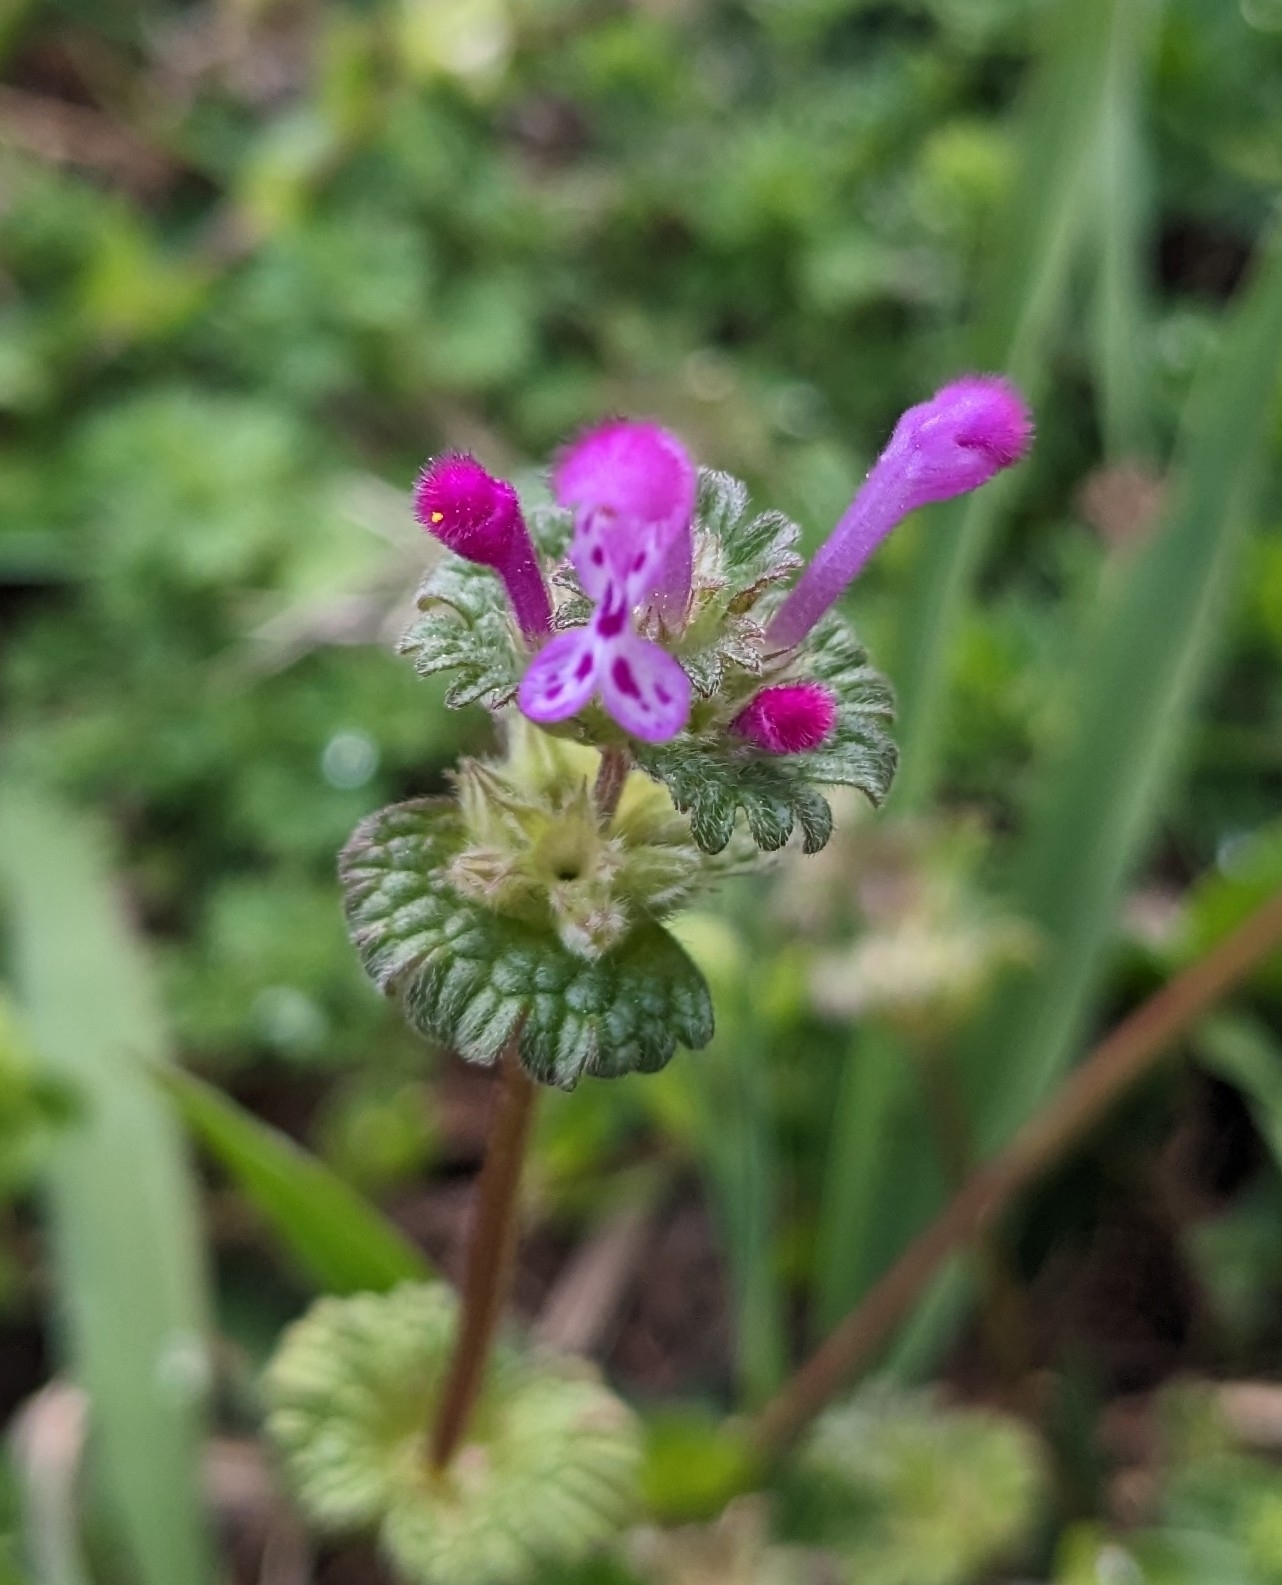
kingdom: Plantae
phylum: Tracheophyta
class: Magnoliopsida
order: Lamiales
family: Lamiaceae
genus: Lamium
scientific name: Lamium amplexicaule
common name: Henbit dead-nettle
